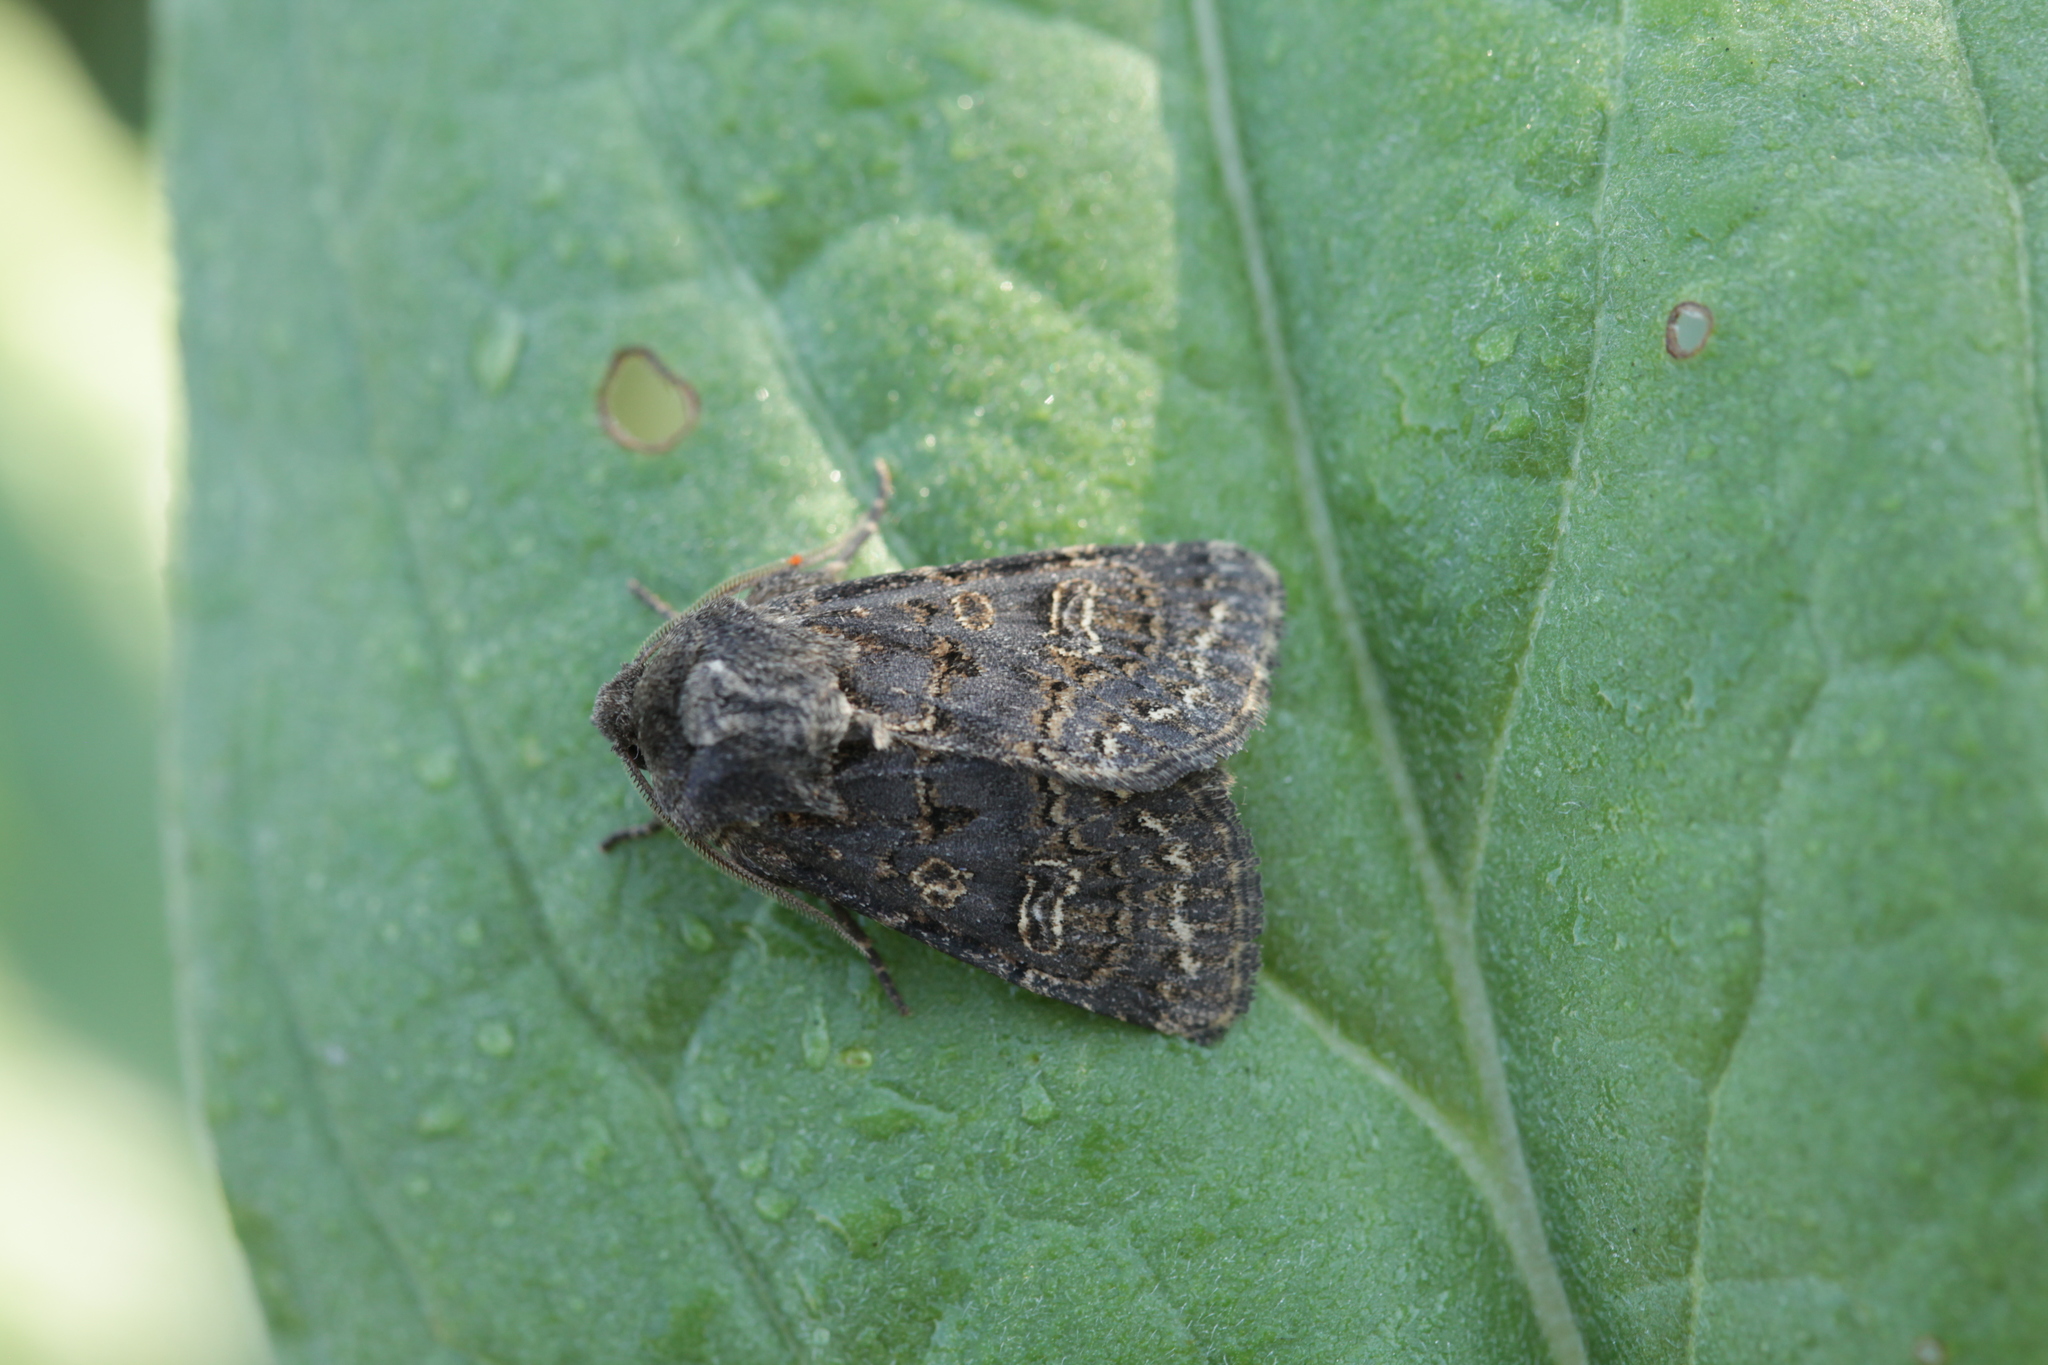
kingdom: Animalia
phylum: Arthropoda
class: Insecta
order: Lepidoptera
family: Noctuidae
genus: Tholera
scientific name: Tholera cespitis
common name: Hedge rustic
